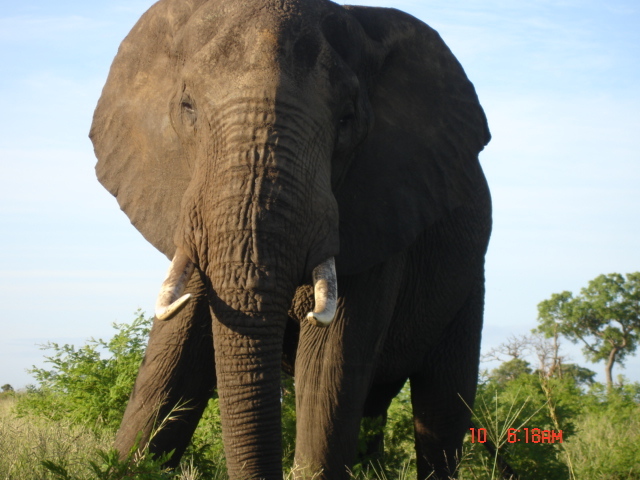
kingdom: Animalia
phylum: Chordata
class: Mammalia
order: Proboscidea
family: Elephantidae
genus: Loxodonta
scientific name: Loxodonta africana
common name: African elephant
